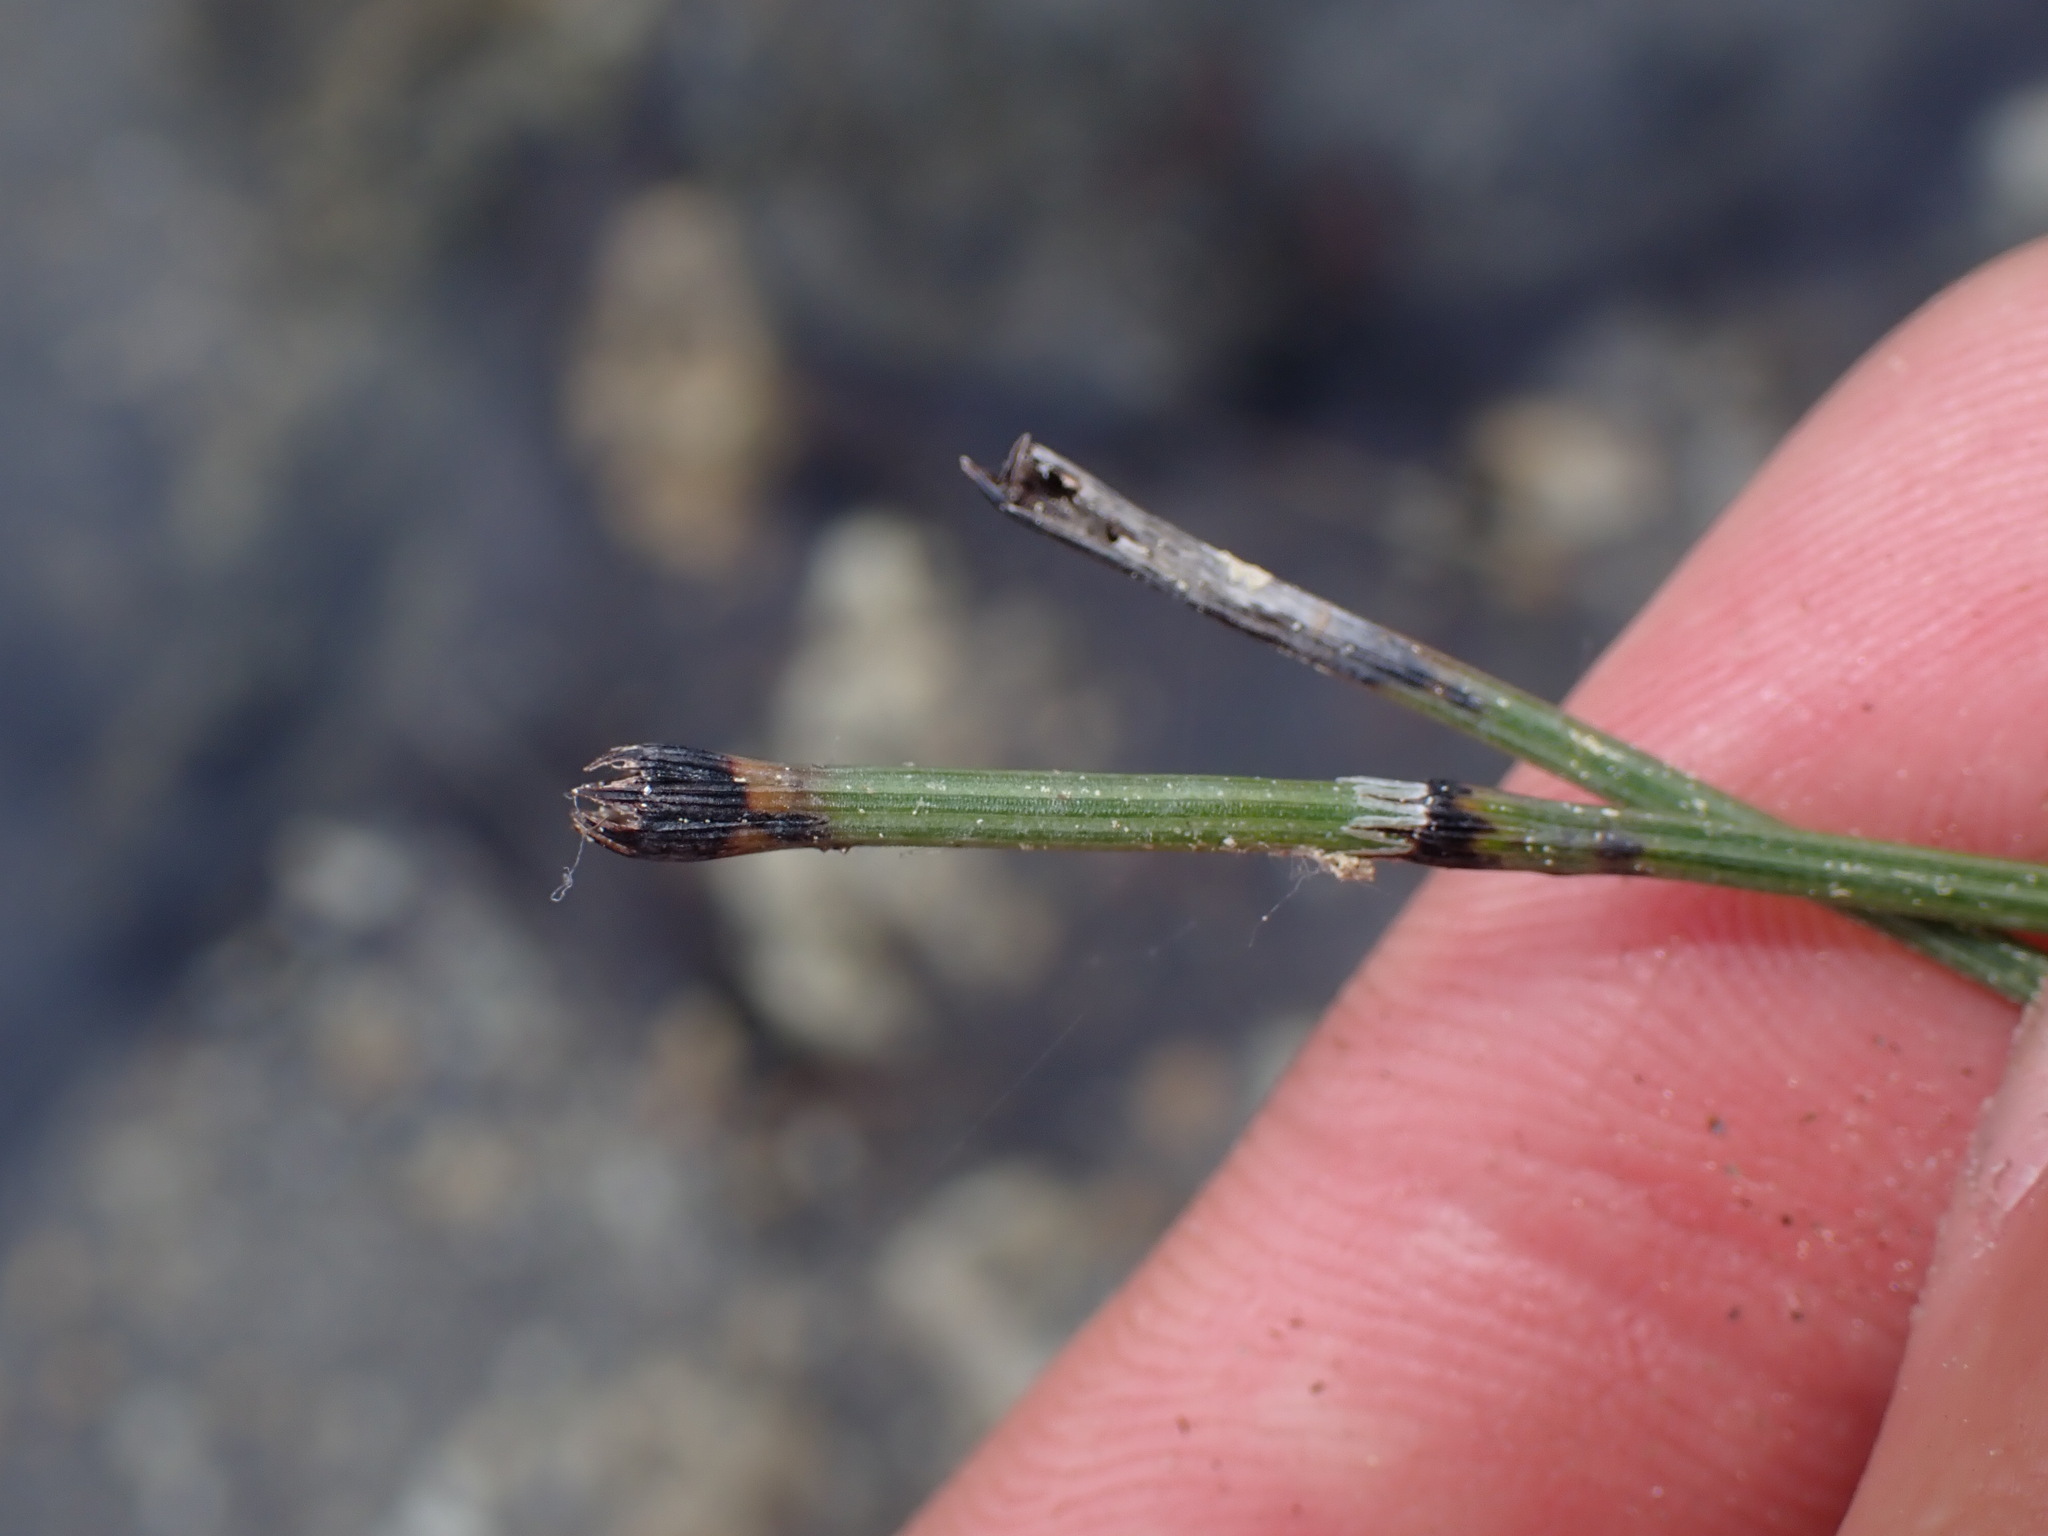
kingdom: Plantae
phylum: Tracheophyta
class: Polypodiopsida
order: Equisetales
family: Equisetaceae
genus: Equisetum
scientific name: Equisetum variegatum
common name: Variegated horsetail
